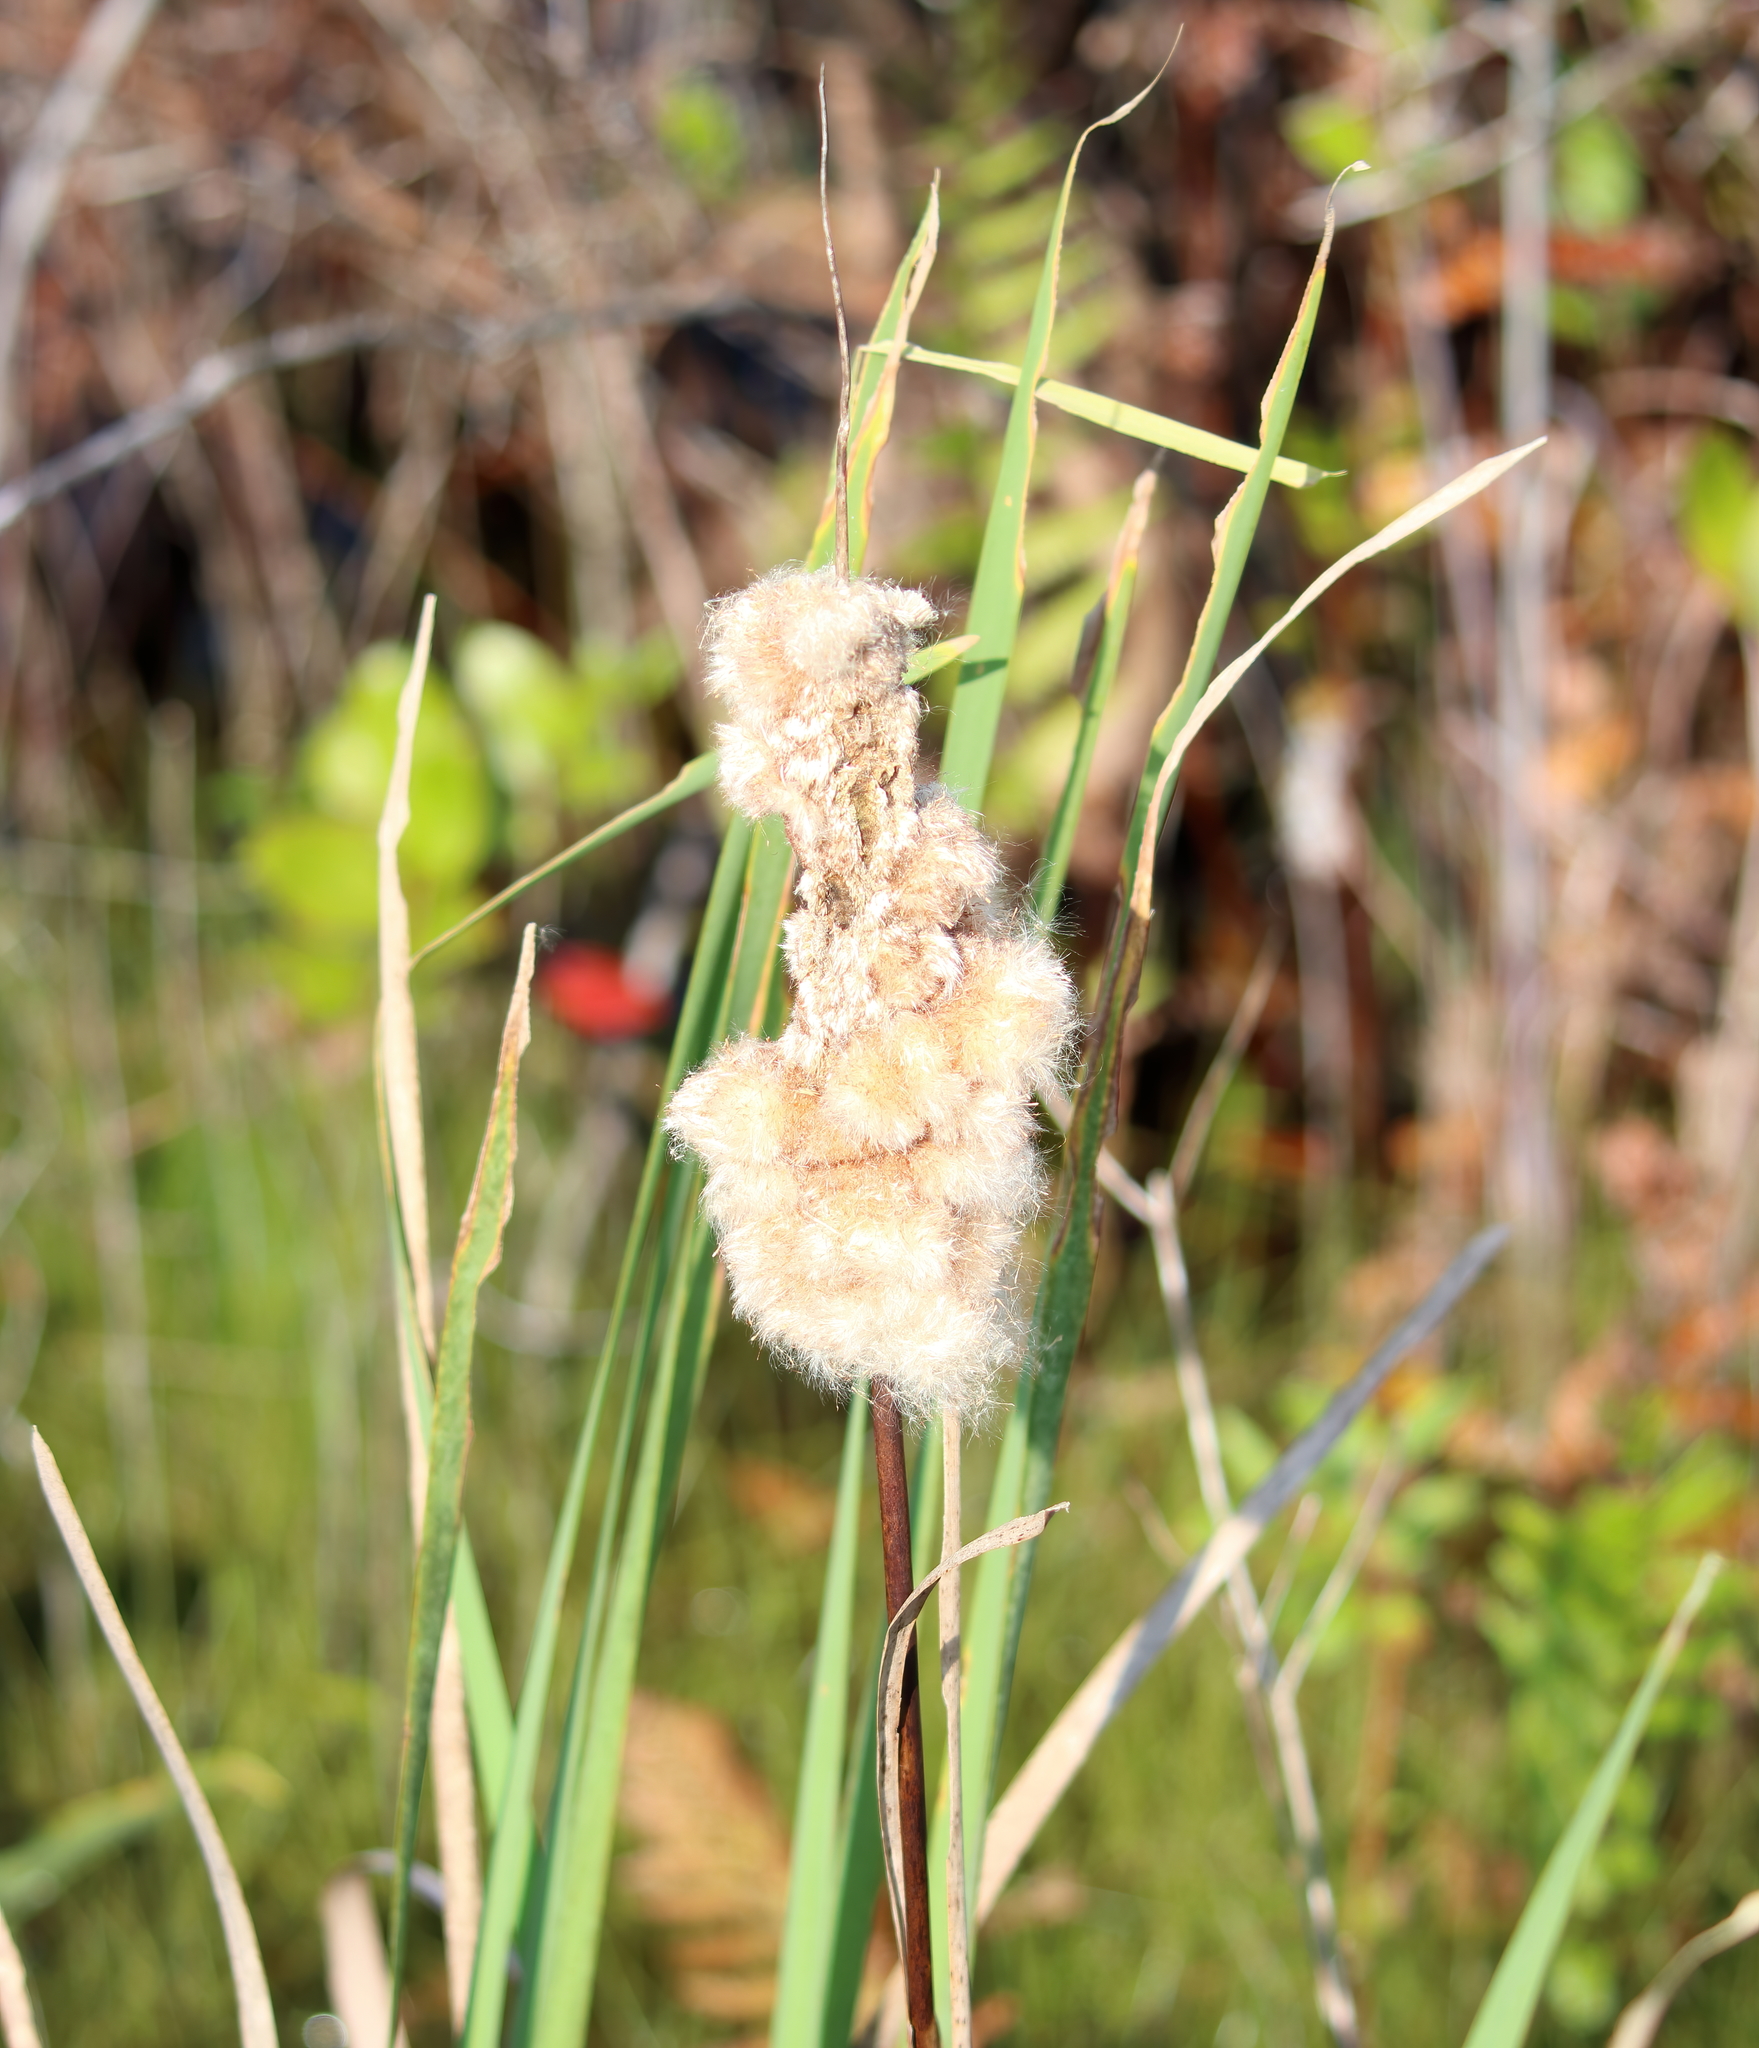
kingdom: Plantae
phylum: Tracheophyta
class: Liliopsida
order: Poales
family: Typhaceae
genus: Typha
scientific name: Typha latifolia
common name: Broadleaf cattail
